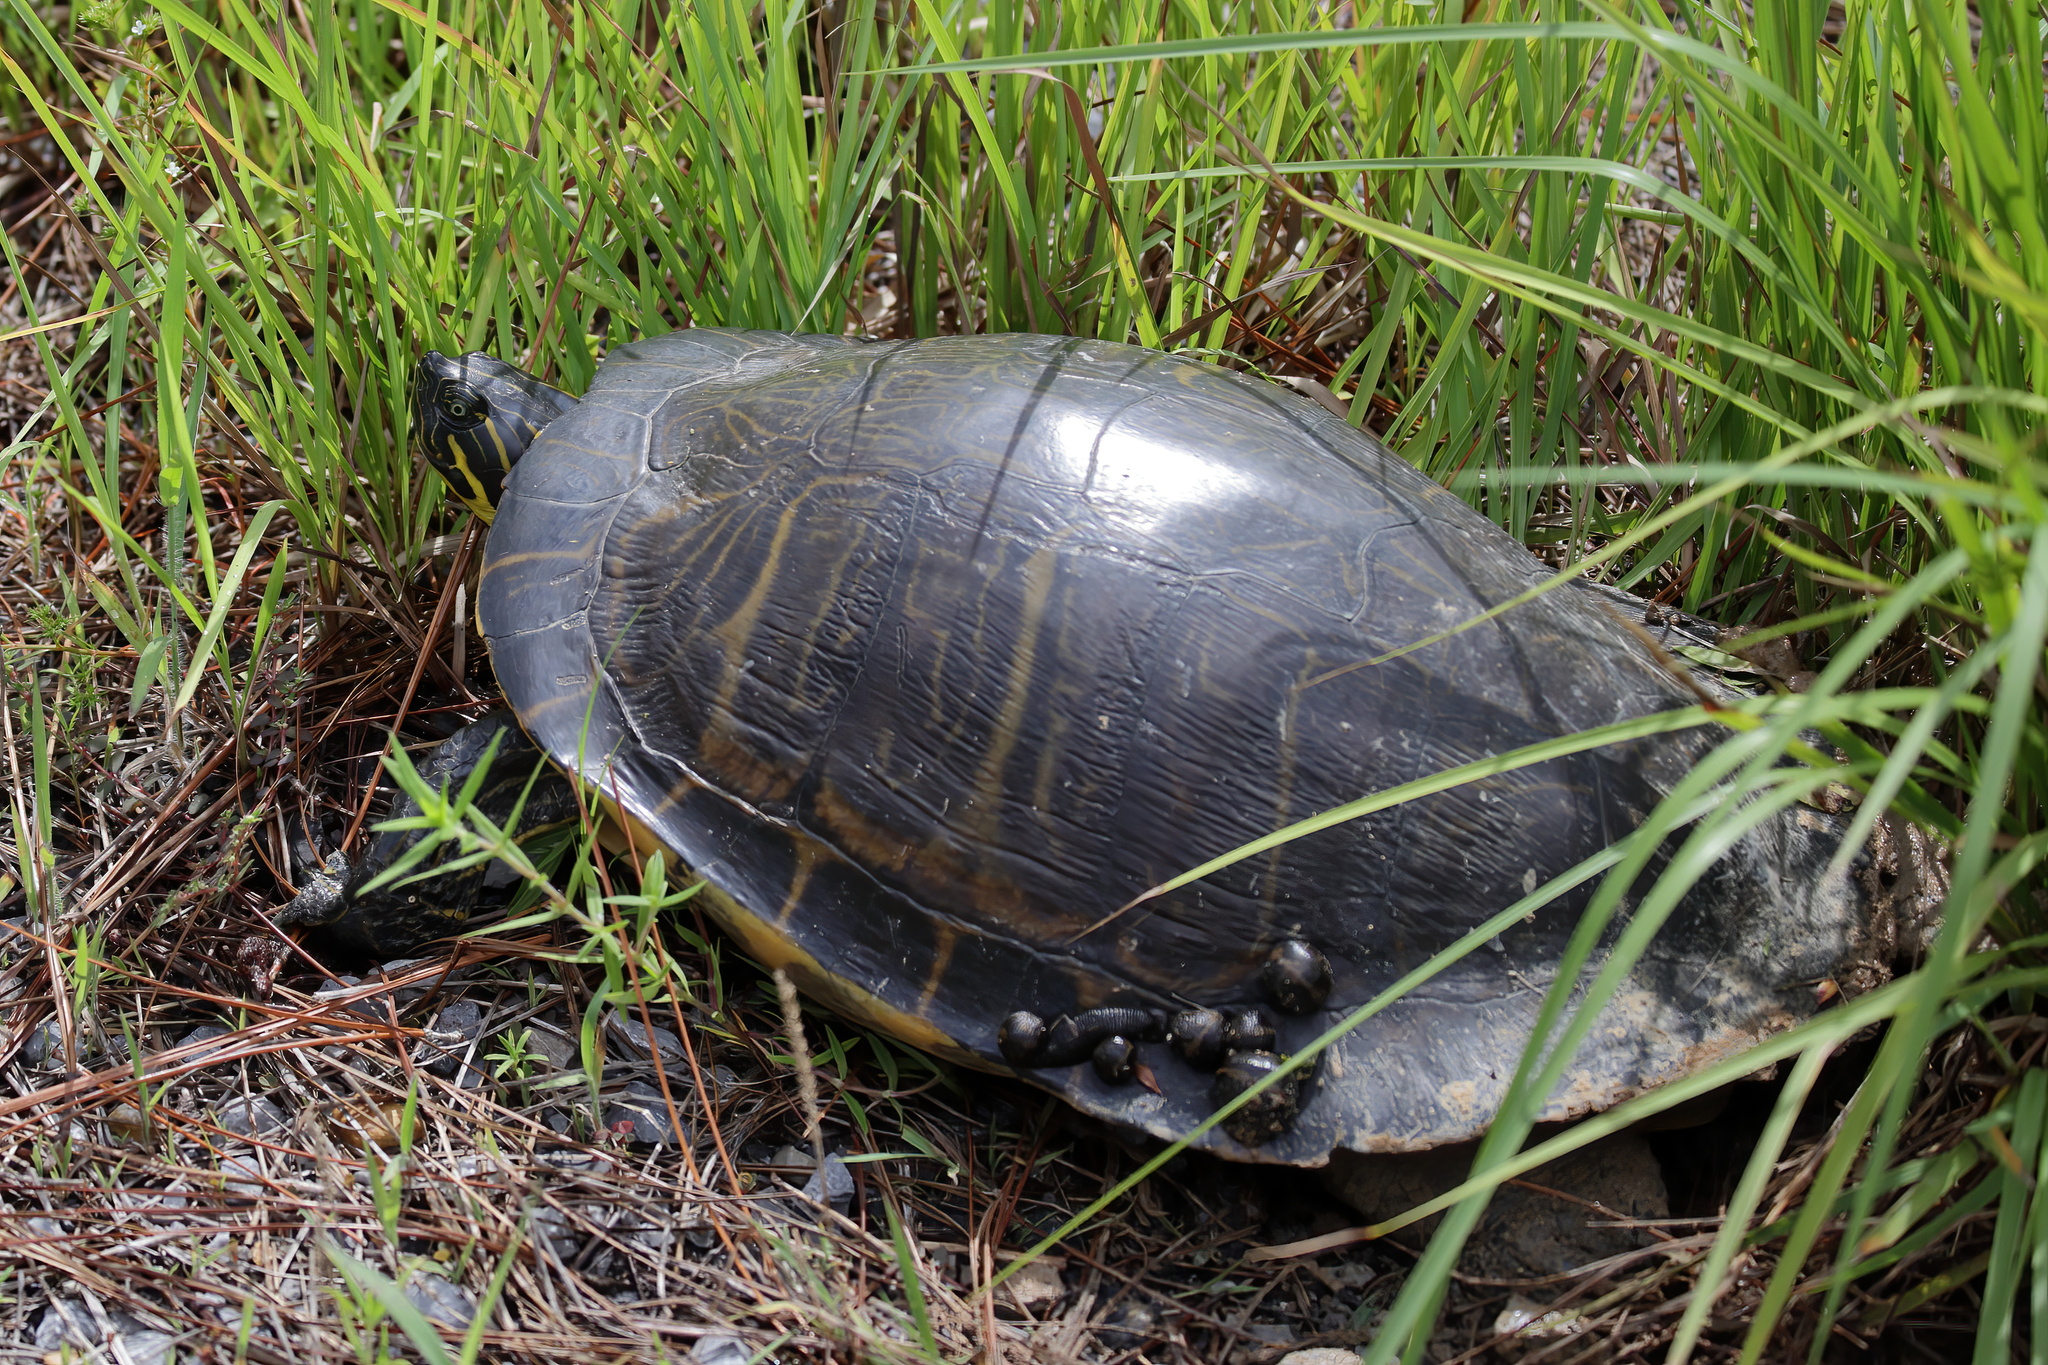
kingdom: Animalia
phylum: Chordata
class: Testudines
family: Emydidae
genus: Pseudemys
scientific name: Pseudemys concinna
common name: Eastern river cooter
